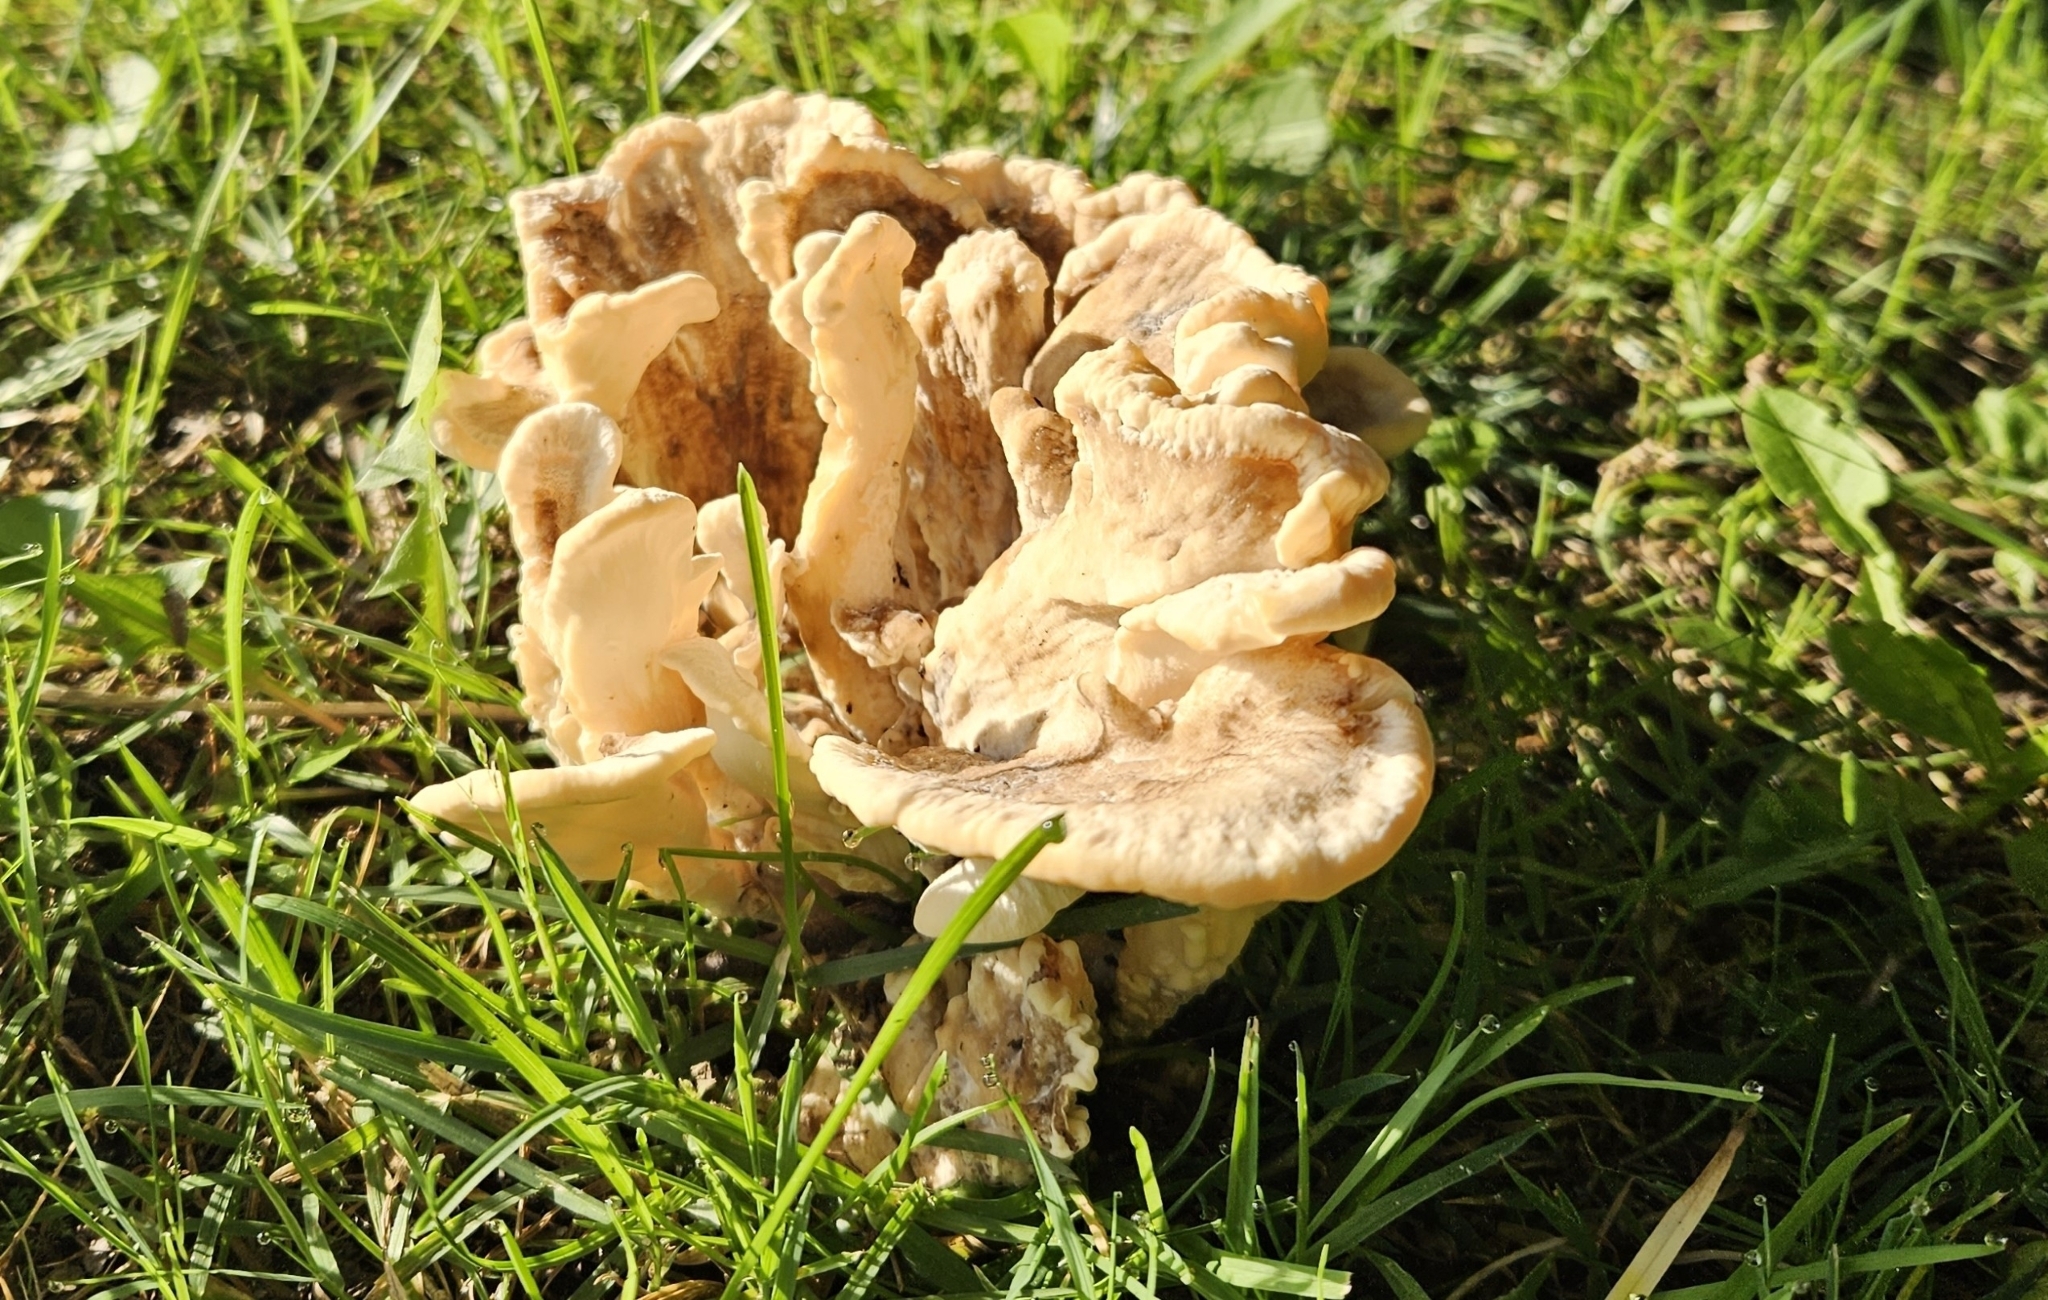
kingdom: Fungi
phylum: Basidiomycota
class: Agaricomycetes
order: Polyporales
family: Meripilaceae
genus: Meripilus
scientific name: Meripilus sumstinei
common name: Black-staining polypore
